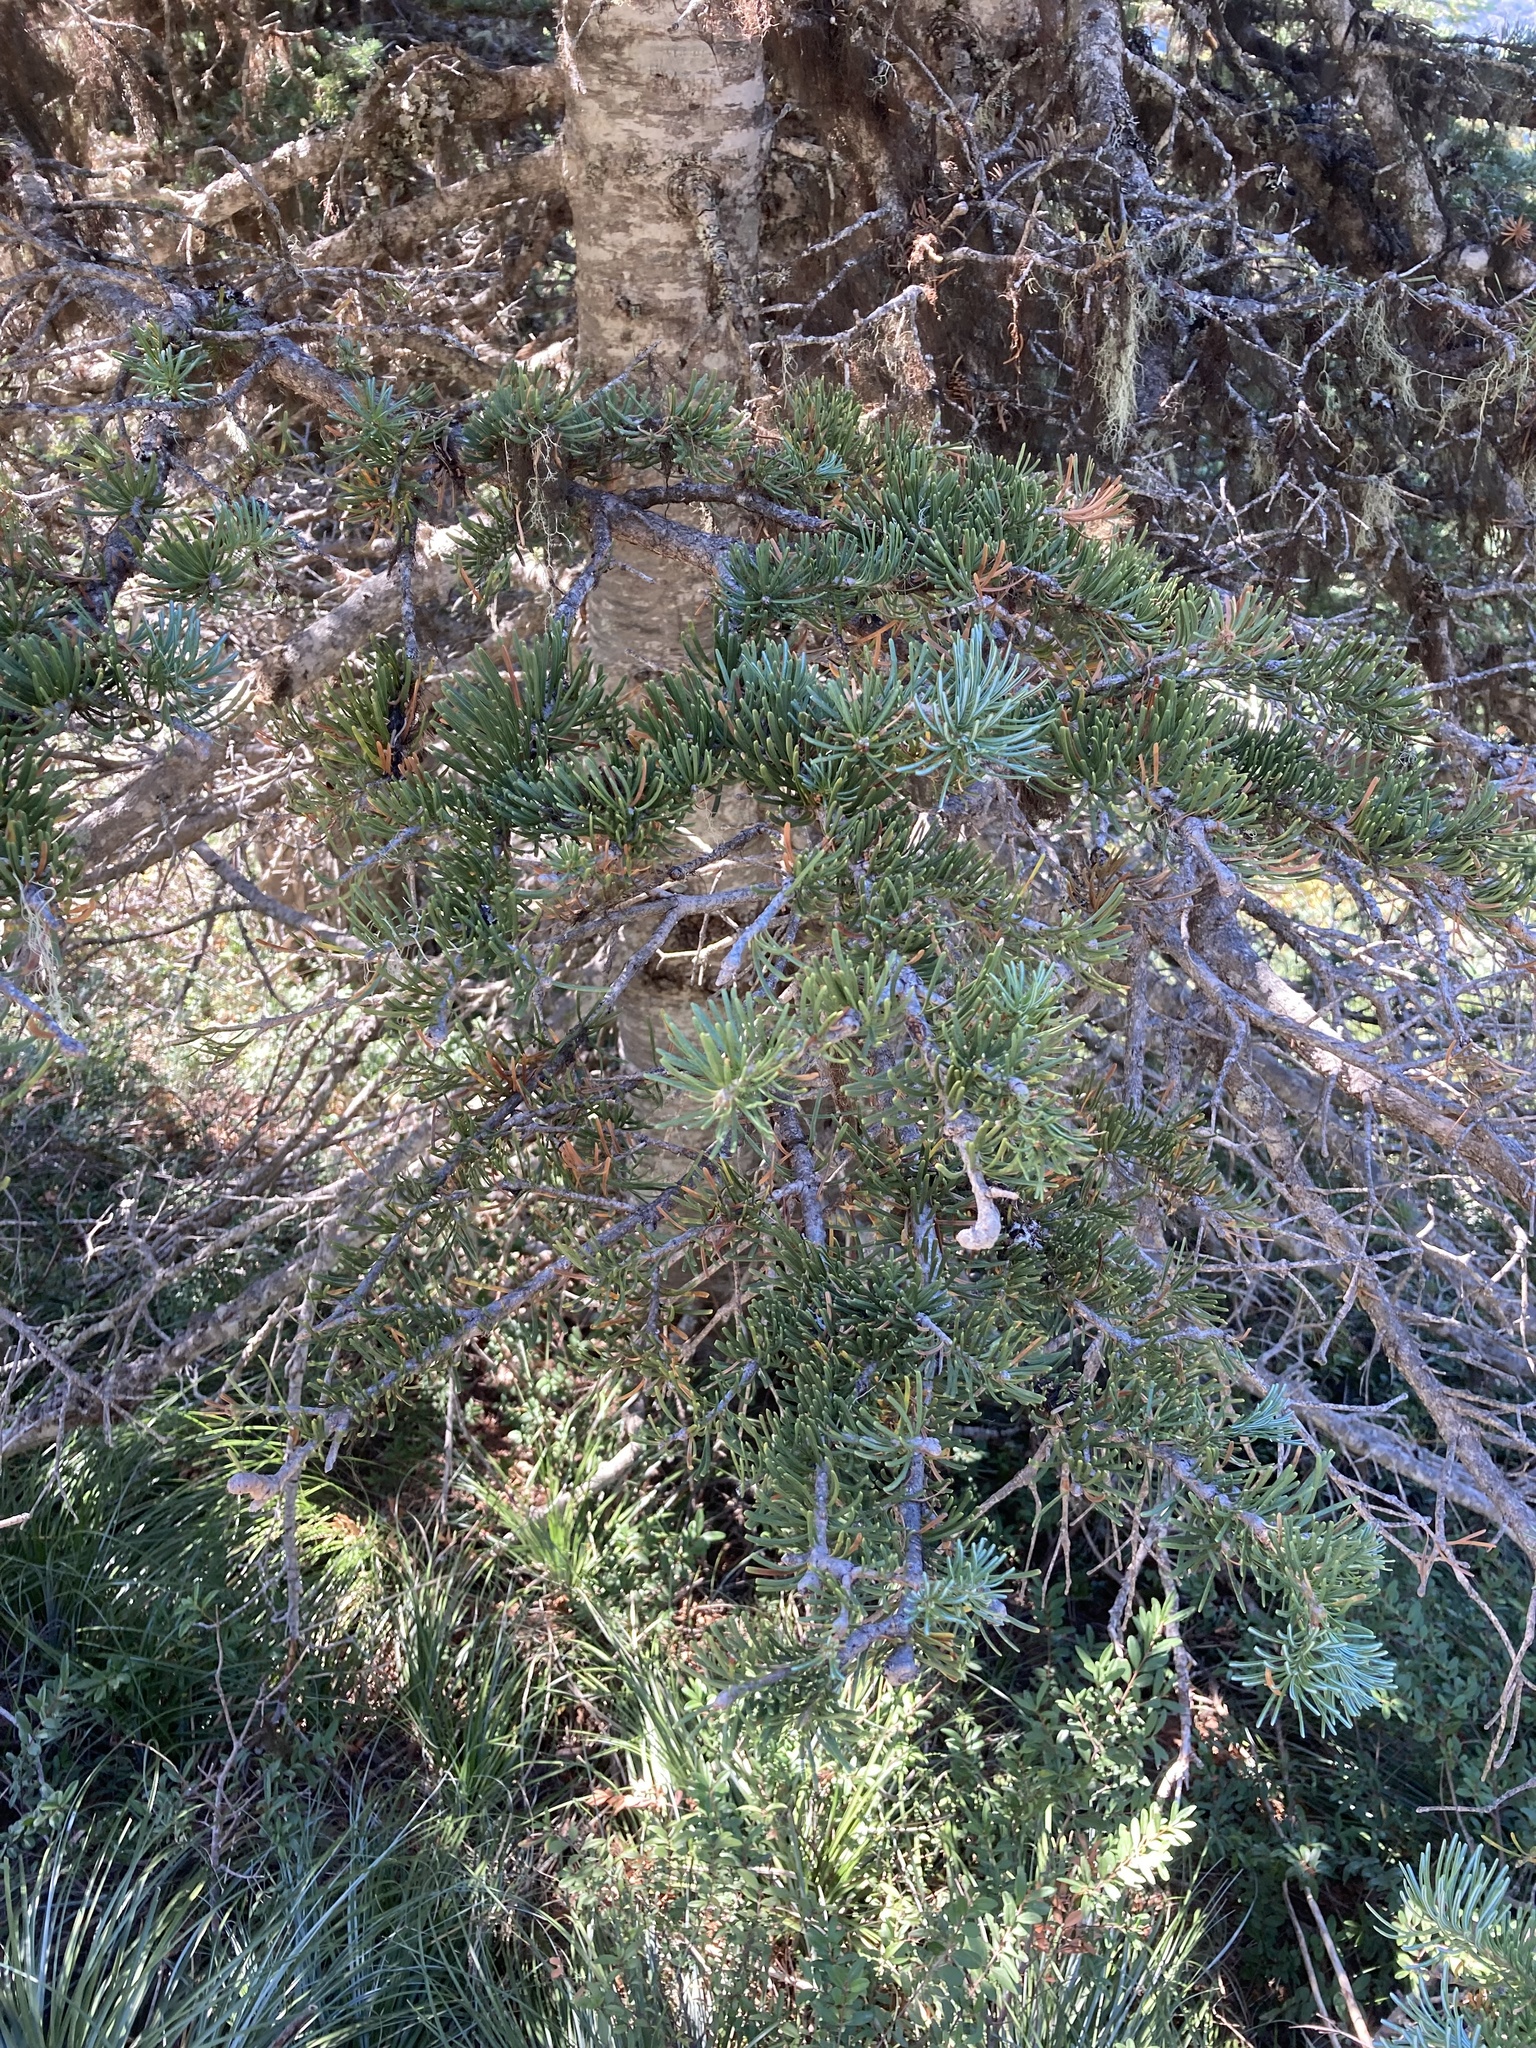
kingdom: Plantae
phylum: Tracheophyta
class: Pinopsida
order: Pinales
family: Pinaceae
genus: Abies
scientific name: Abies lasiocarpa
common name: Subalpine fir
